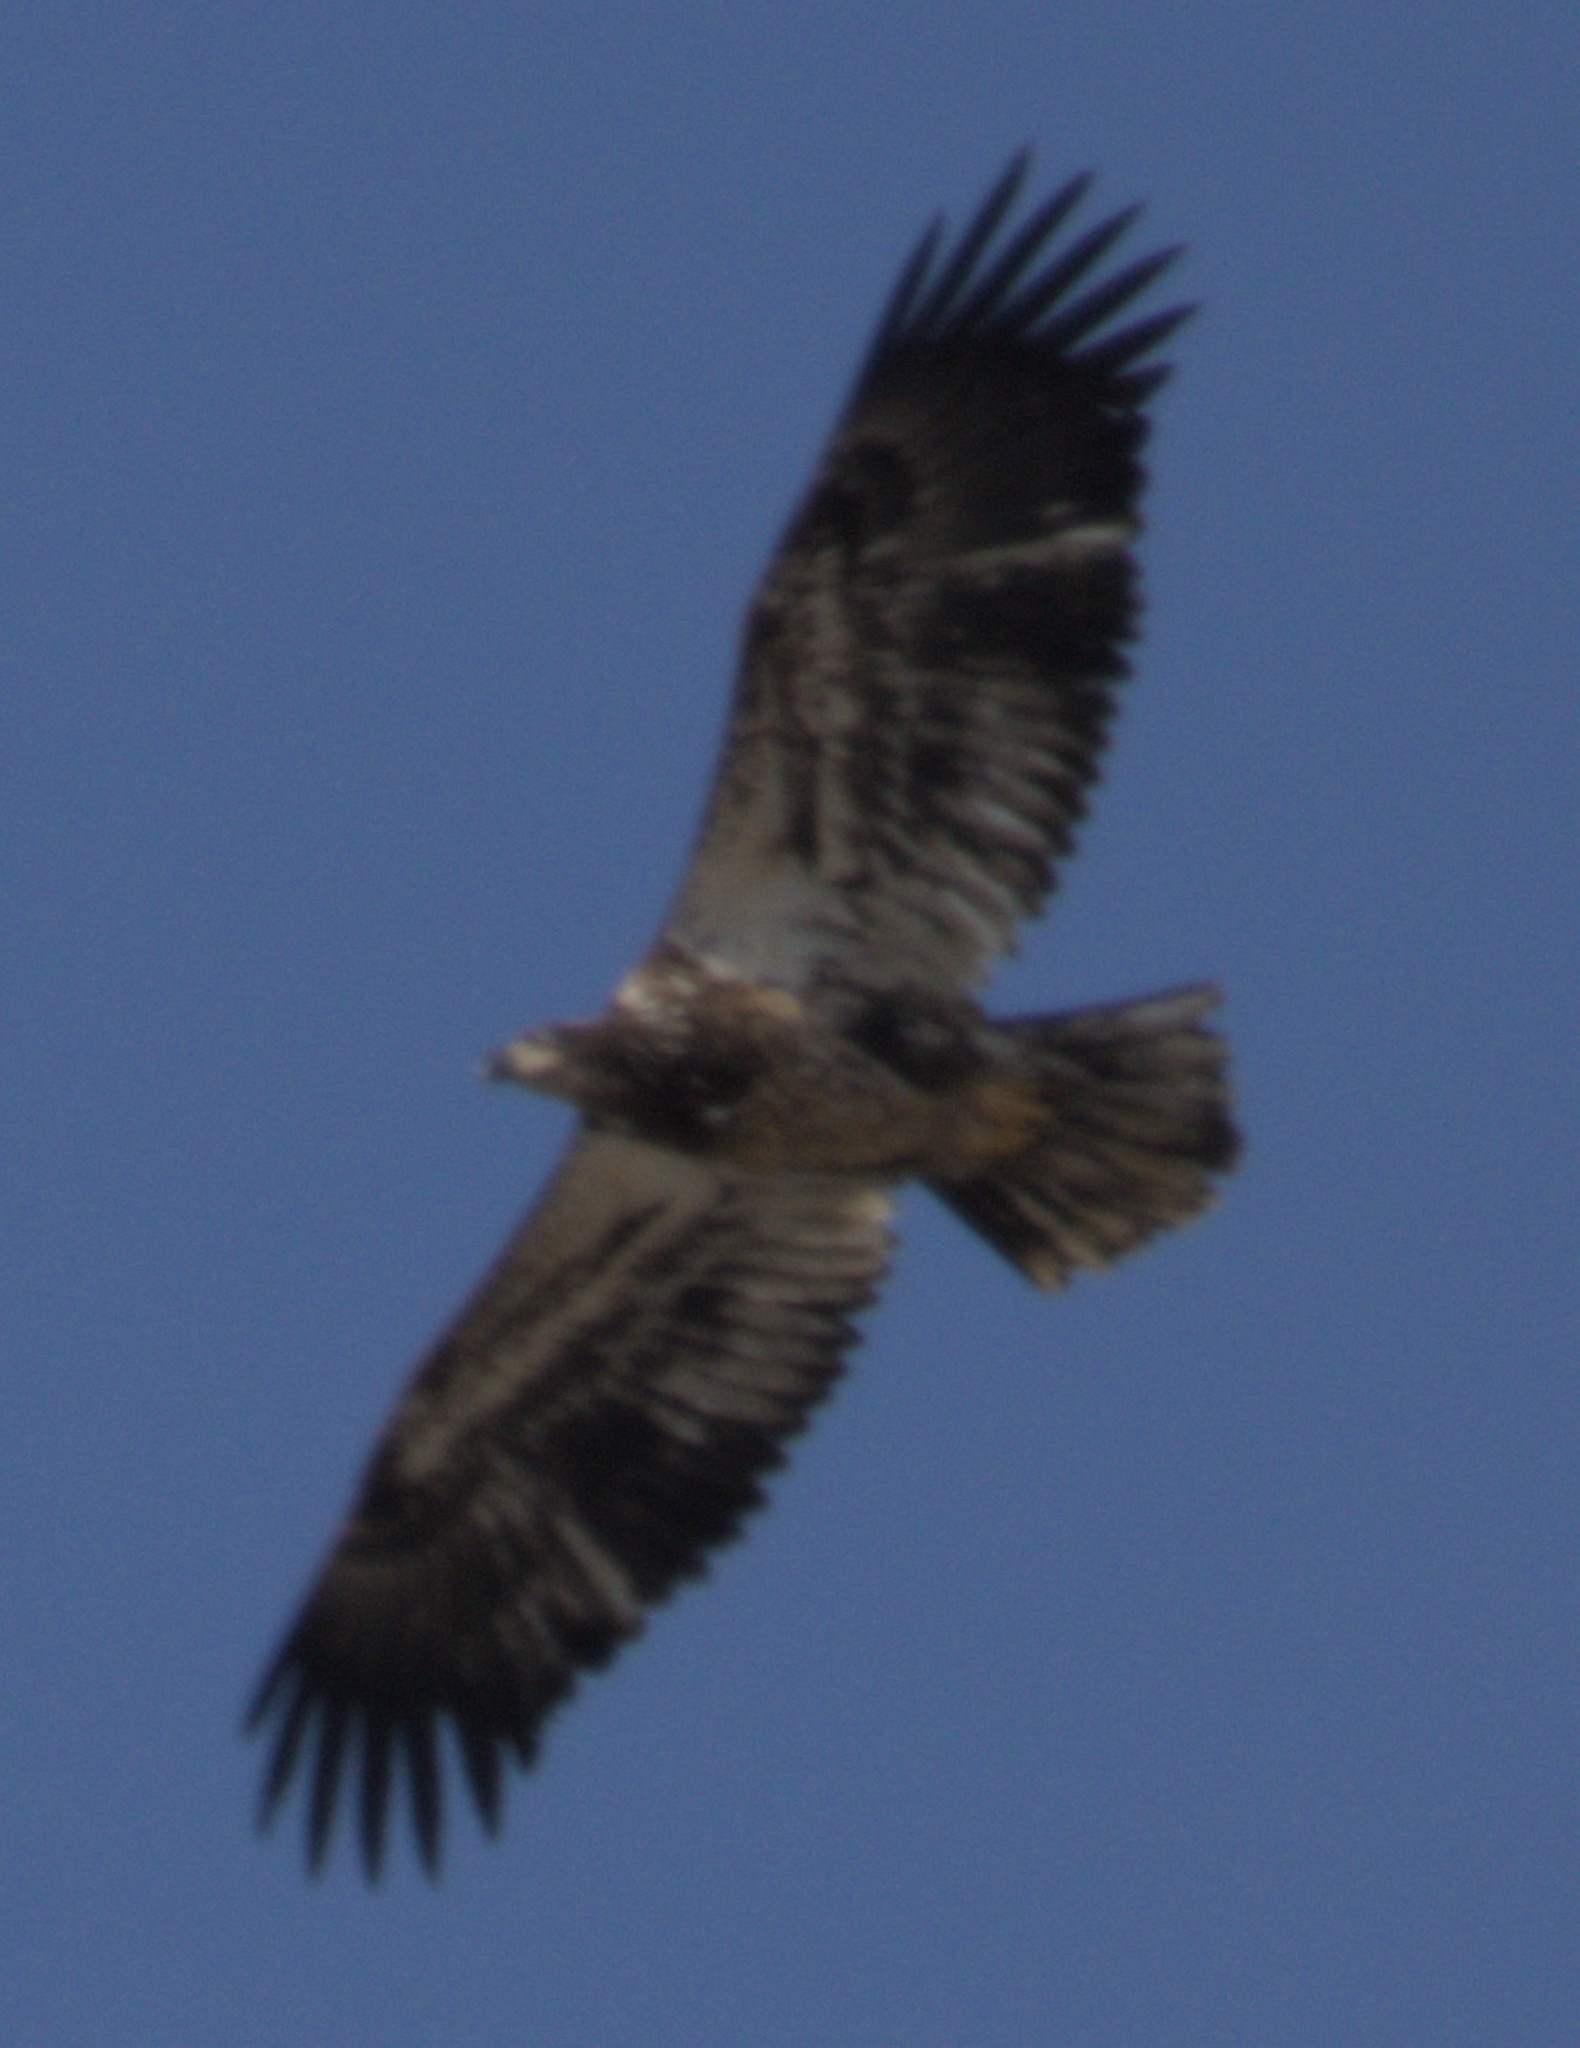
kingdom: Animalia
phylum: Chordata
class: Aves
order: Accipitriformes
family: Accipitridae
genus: Haliaeetus
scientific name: Haliaeetus leucocephalus
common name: Bald eagle
